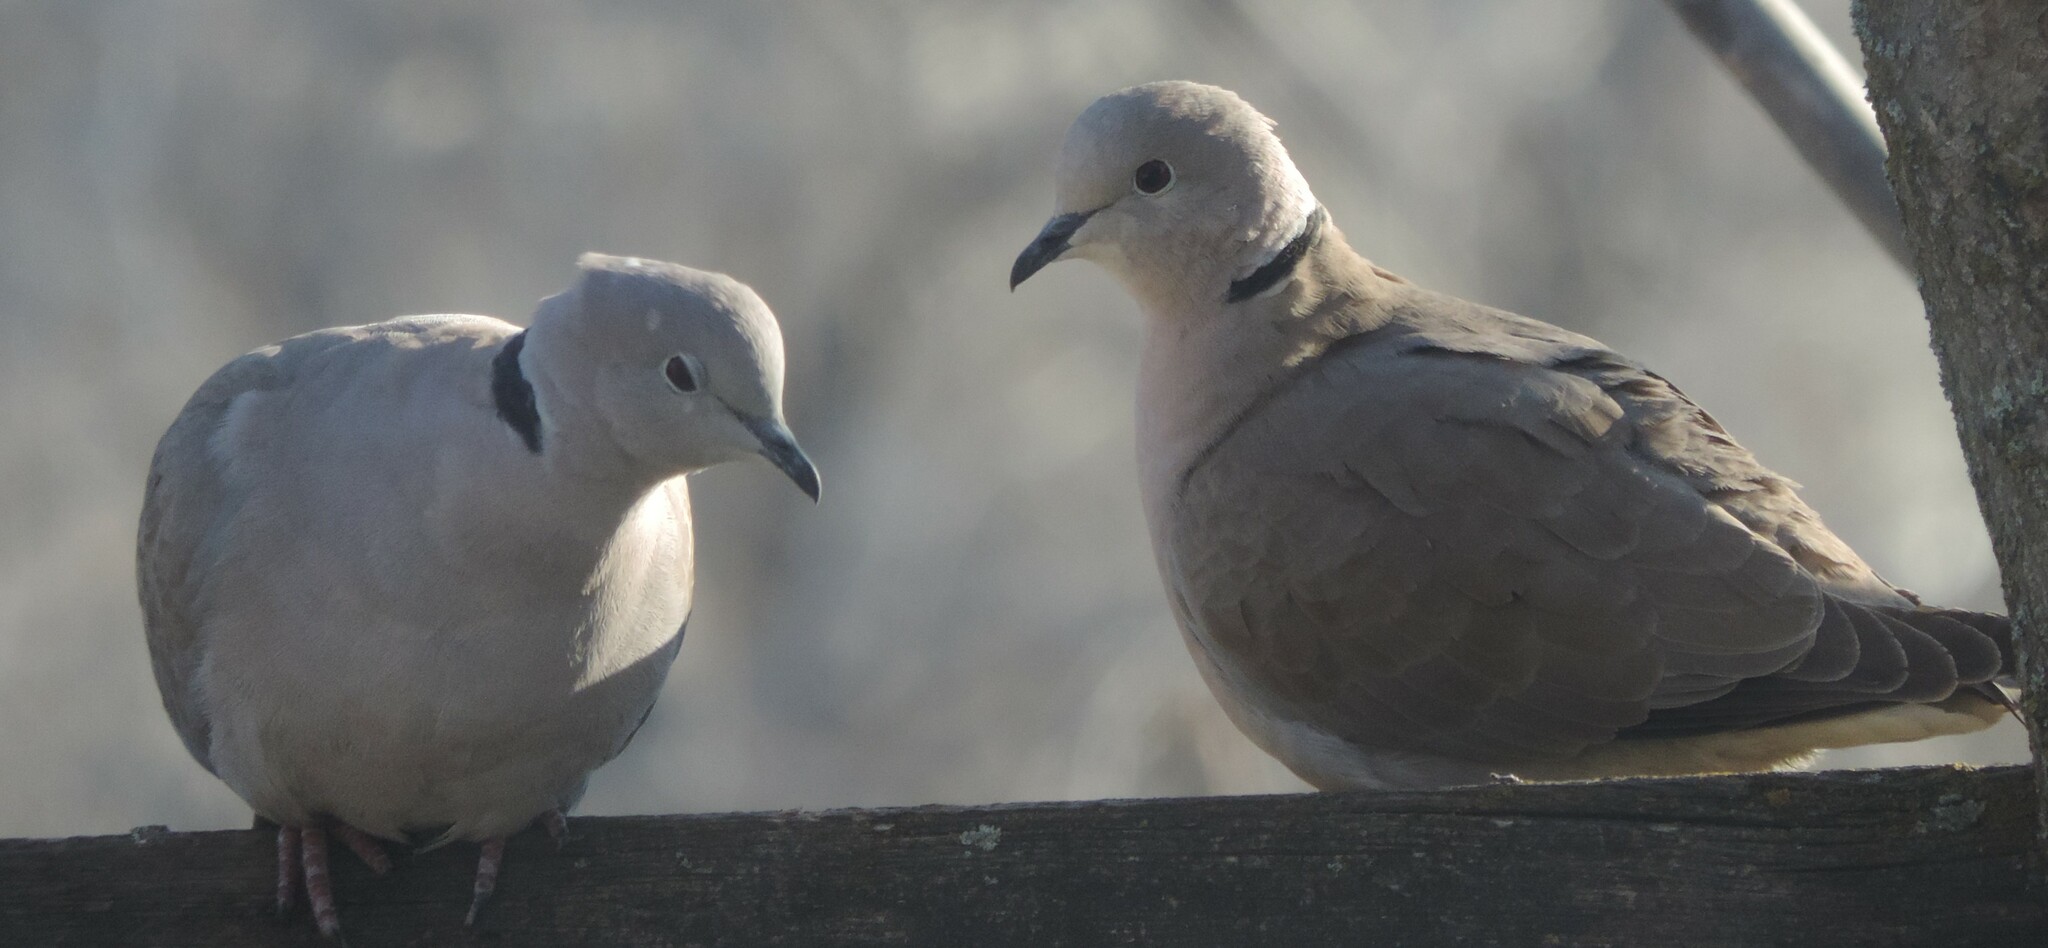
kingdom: Animalia
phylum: Chordata
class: Aves
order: Columbiformes
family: Columbidae
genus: Streptopelia
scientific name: Streptopelia decaocto
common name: Eurasian collared dove
